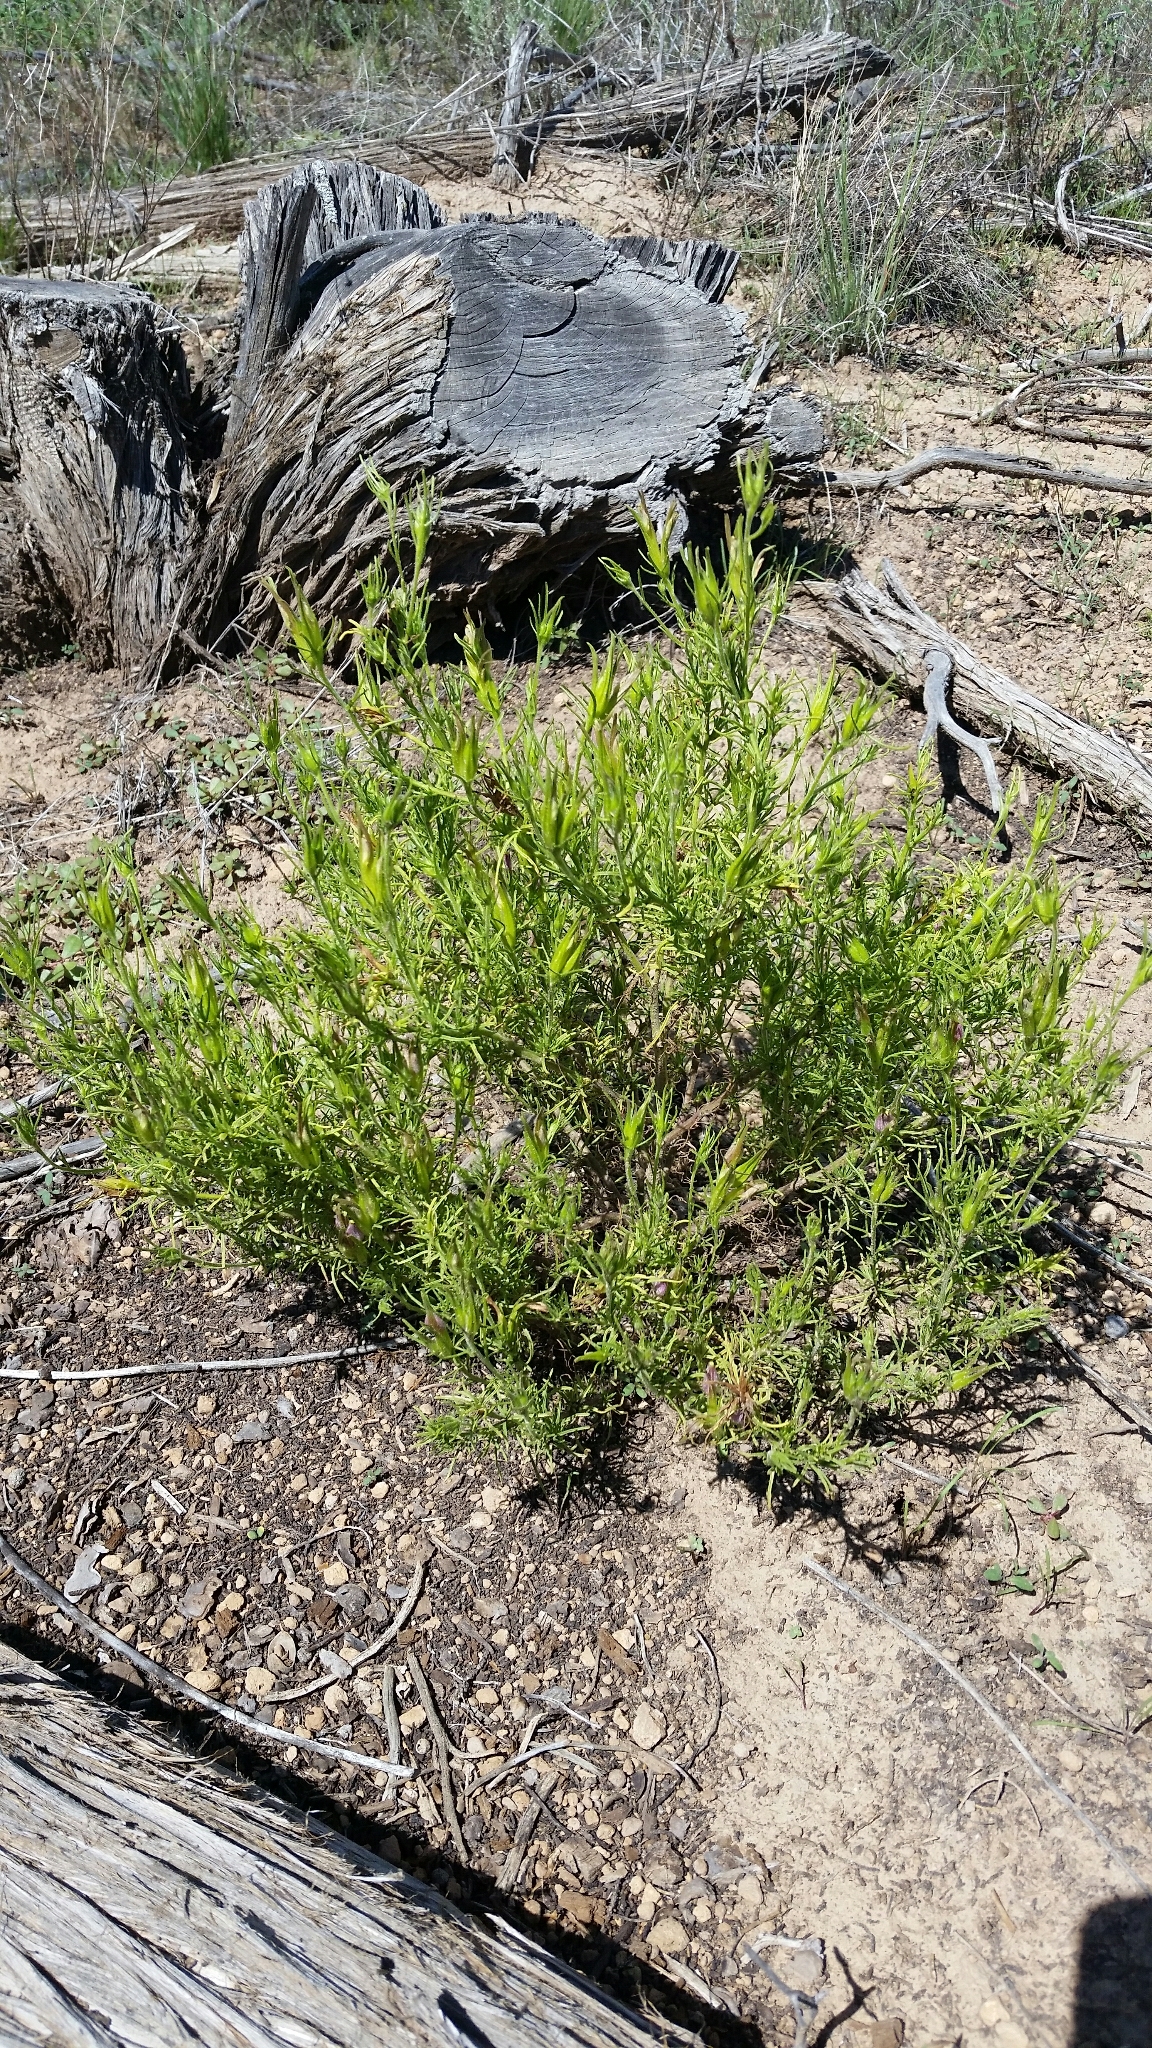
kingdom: Plantae
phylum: Tracheophyta
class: Magnoliopsida
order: Lamiales
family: Orobanchaceae
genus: Cordylanthus
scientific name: Cordylanthus wrightii
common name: Wright's birdsbeak
